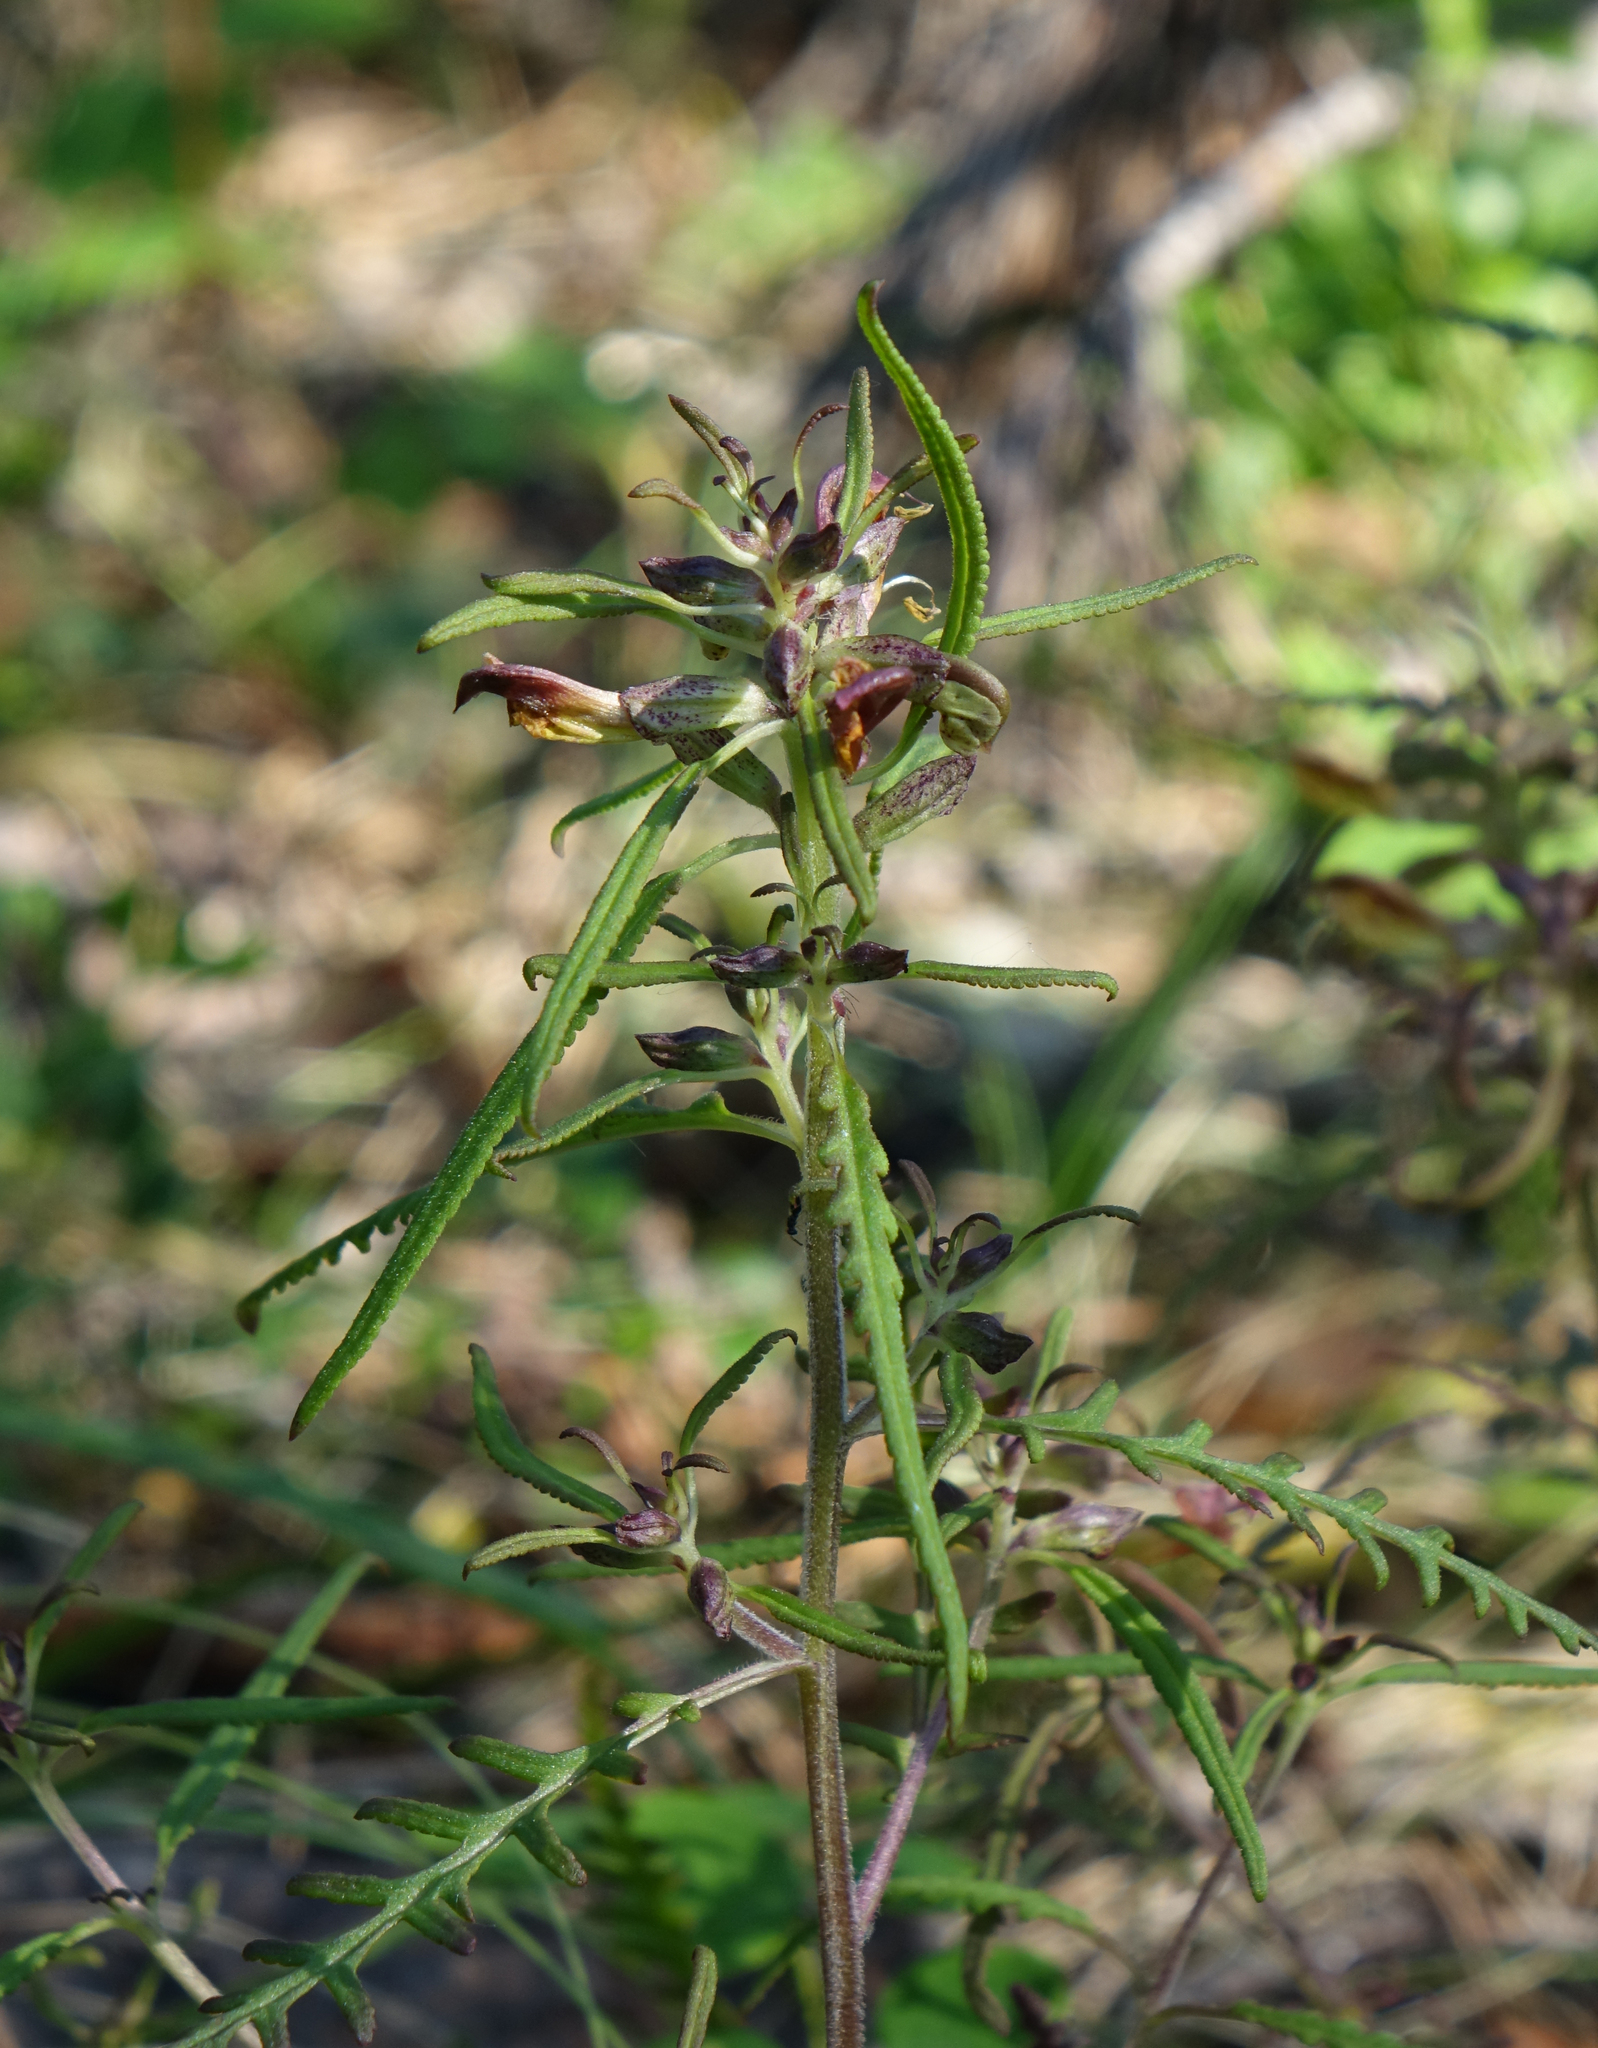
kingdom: Plantae
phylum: Tracheophyta
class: Magnoliopsida
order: Lamiales
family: Orobanchaceae
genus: Pedicularis
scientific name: Pedicularis labradorica
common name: Labrador lousewort
